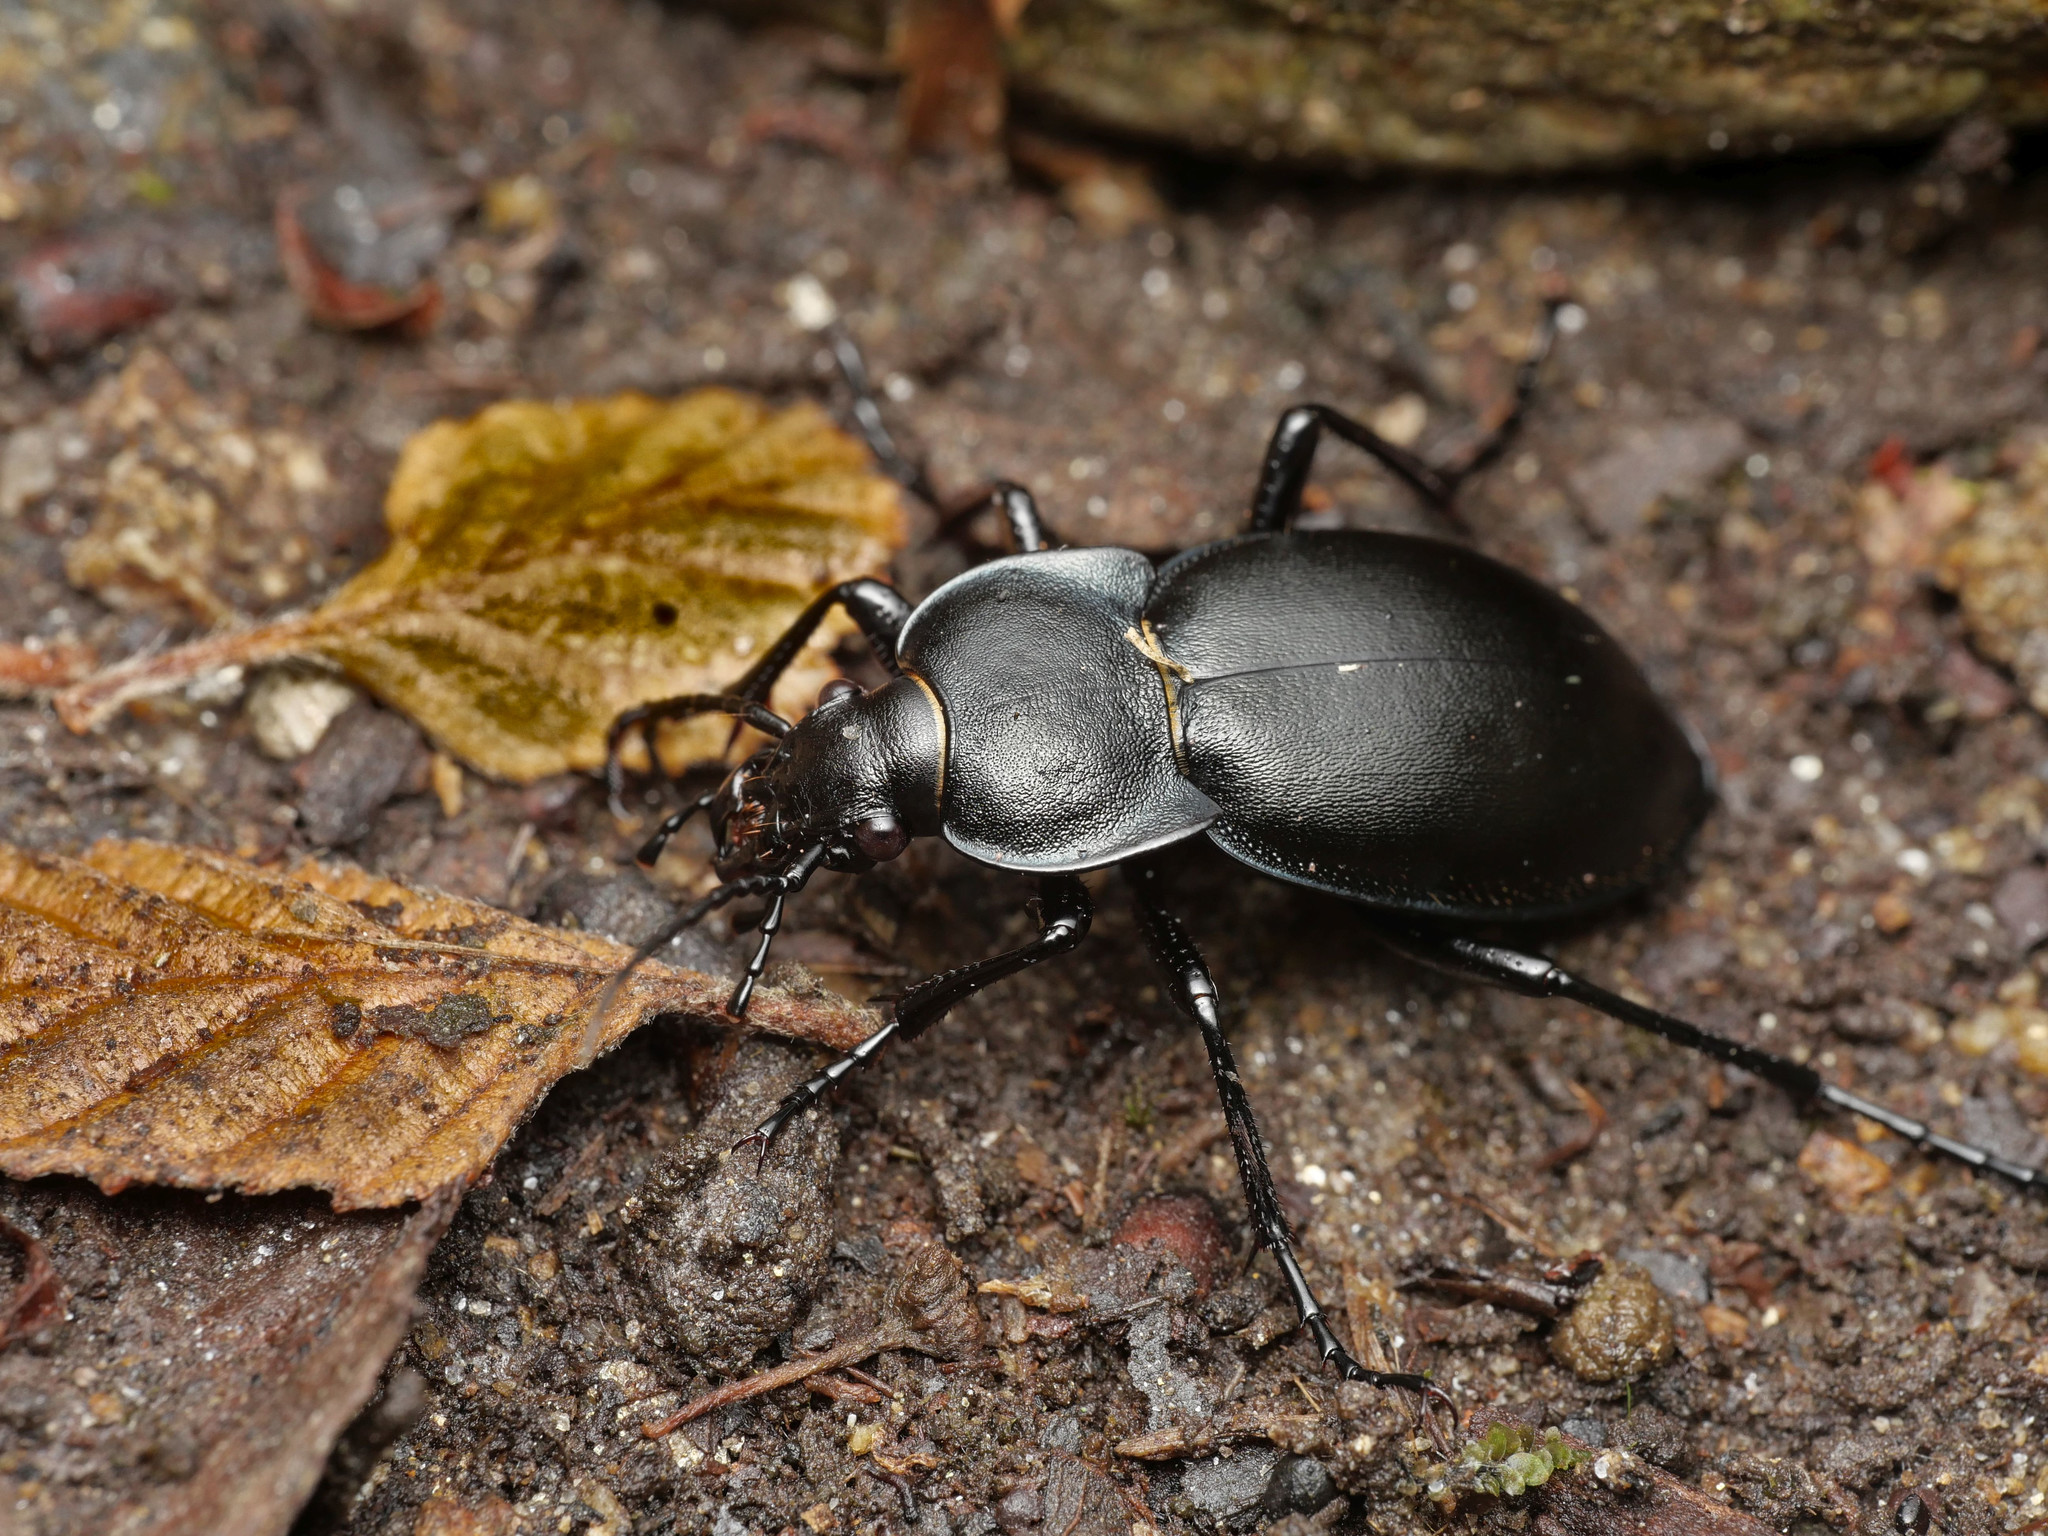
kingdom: Animalia
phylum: Arthropoda
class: Insecta
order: Coleoptera
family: Carabidae
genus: Carabus
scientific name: Carabus glabratus
